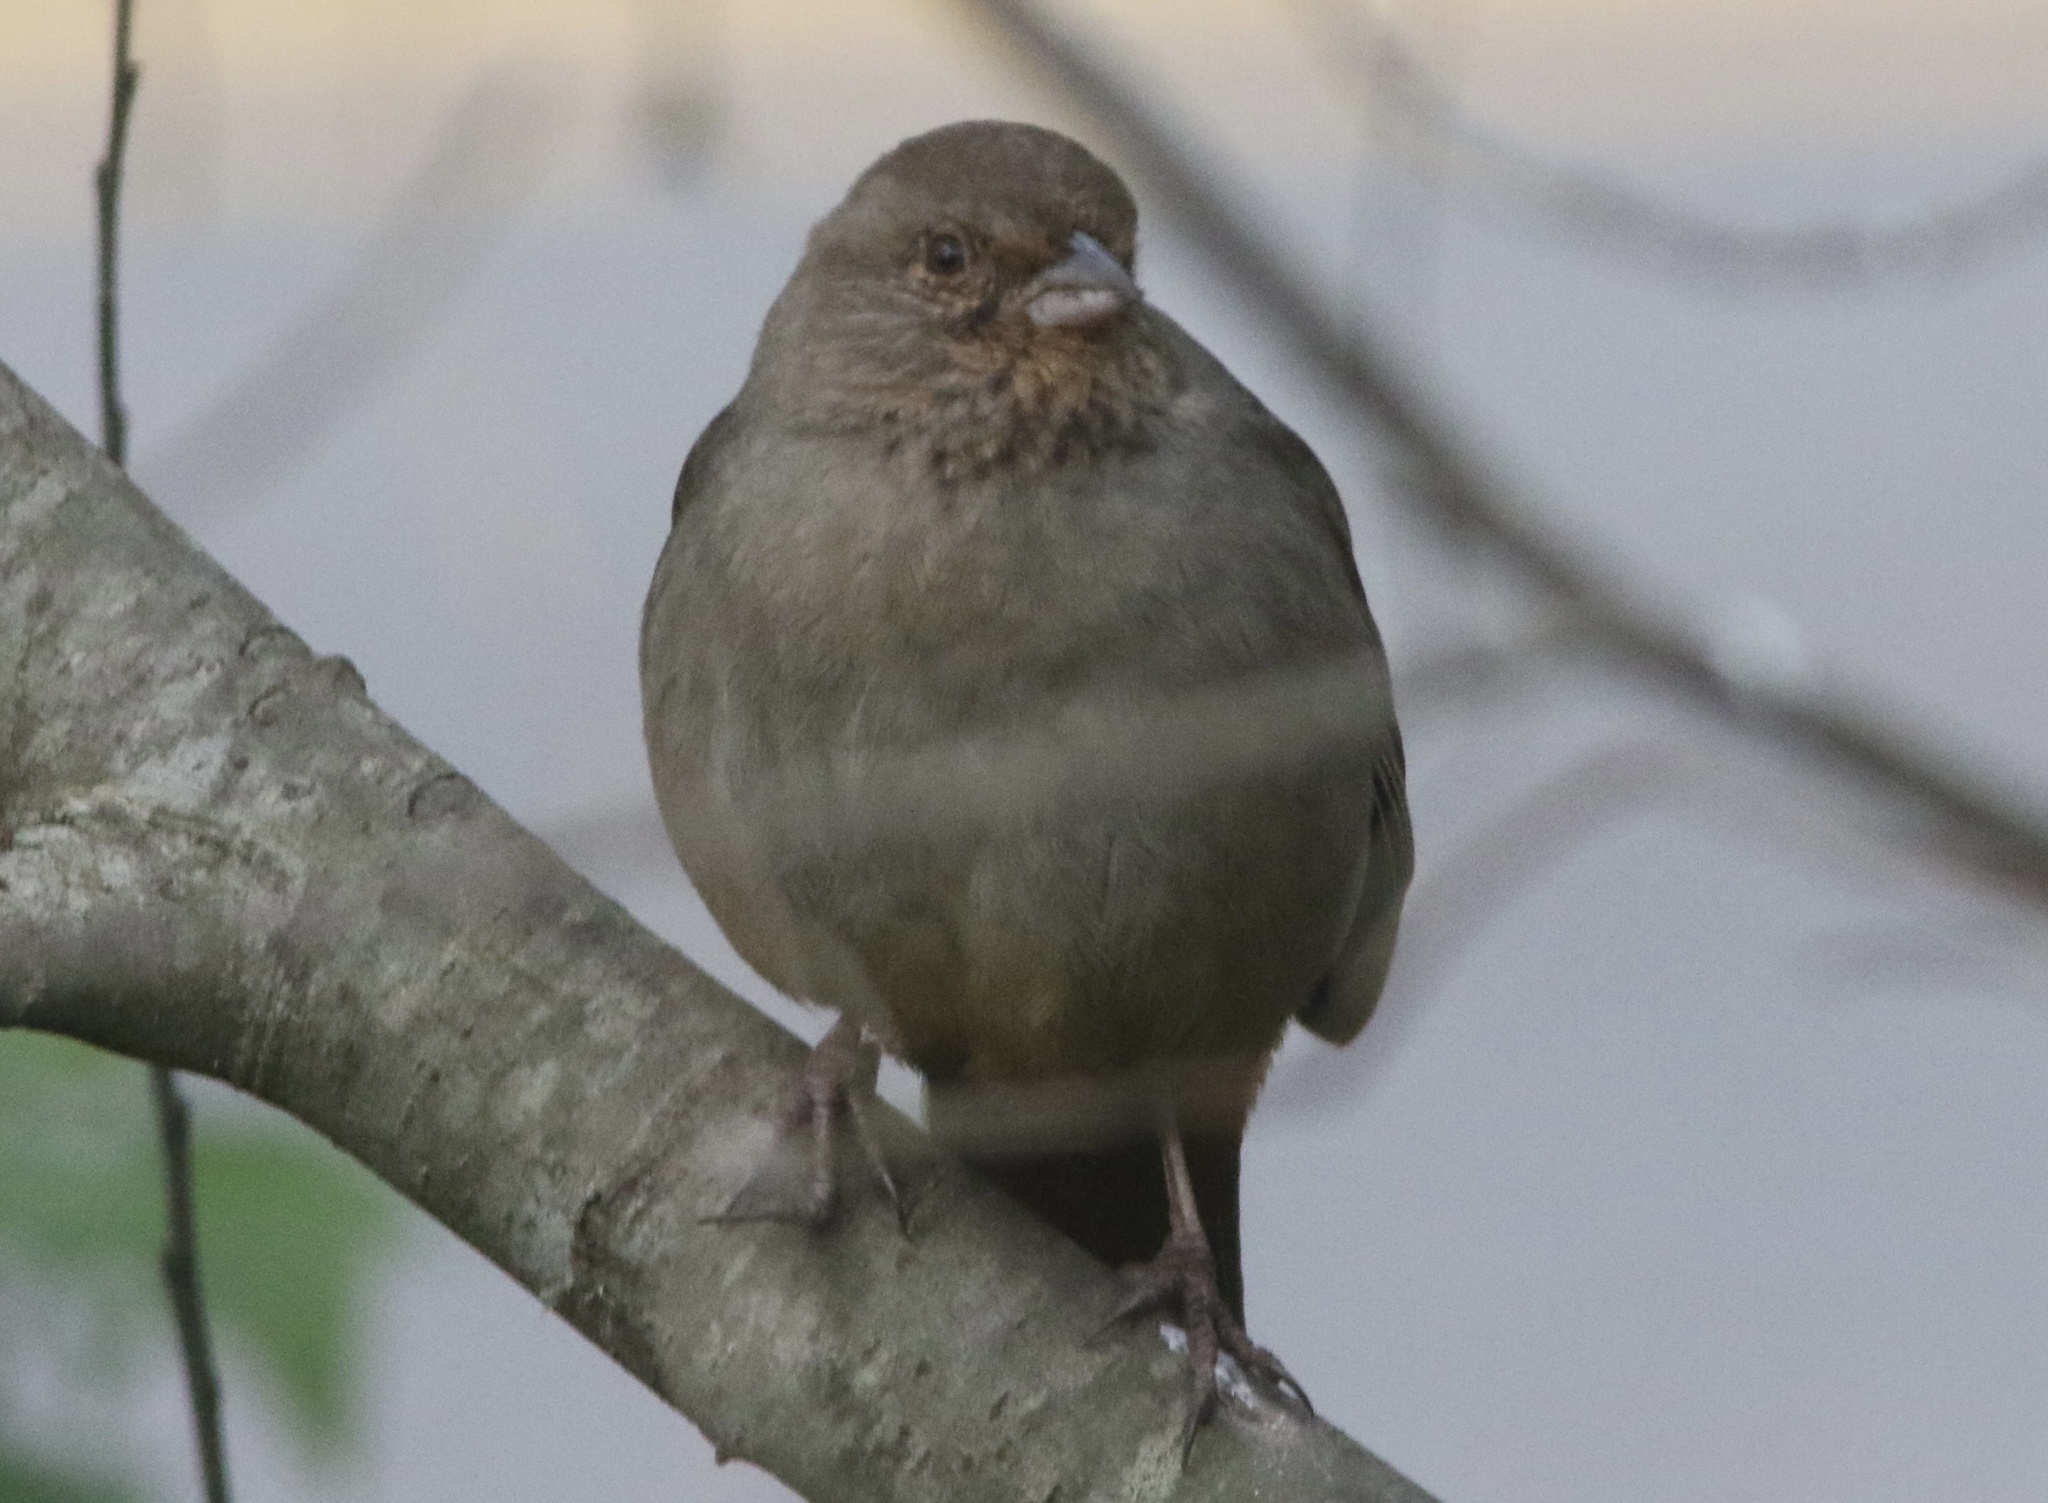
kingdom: Animalia
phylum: Chordata
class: Aves
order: Passeriformes
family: Passerellidae
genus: Melozone
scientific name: Melozone crissalis
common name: California towhee
